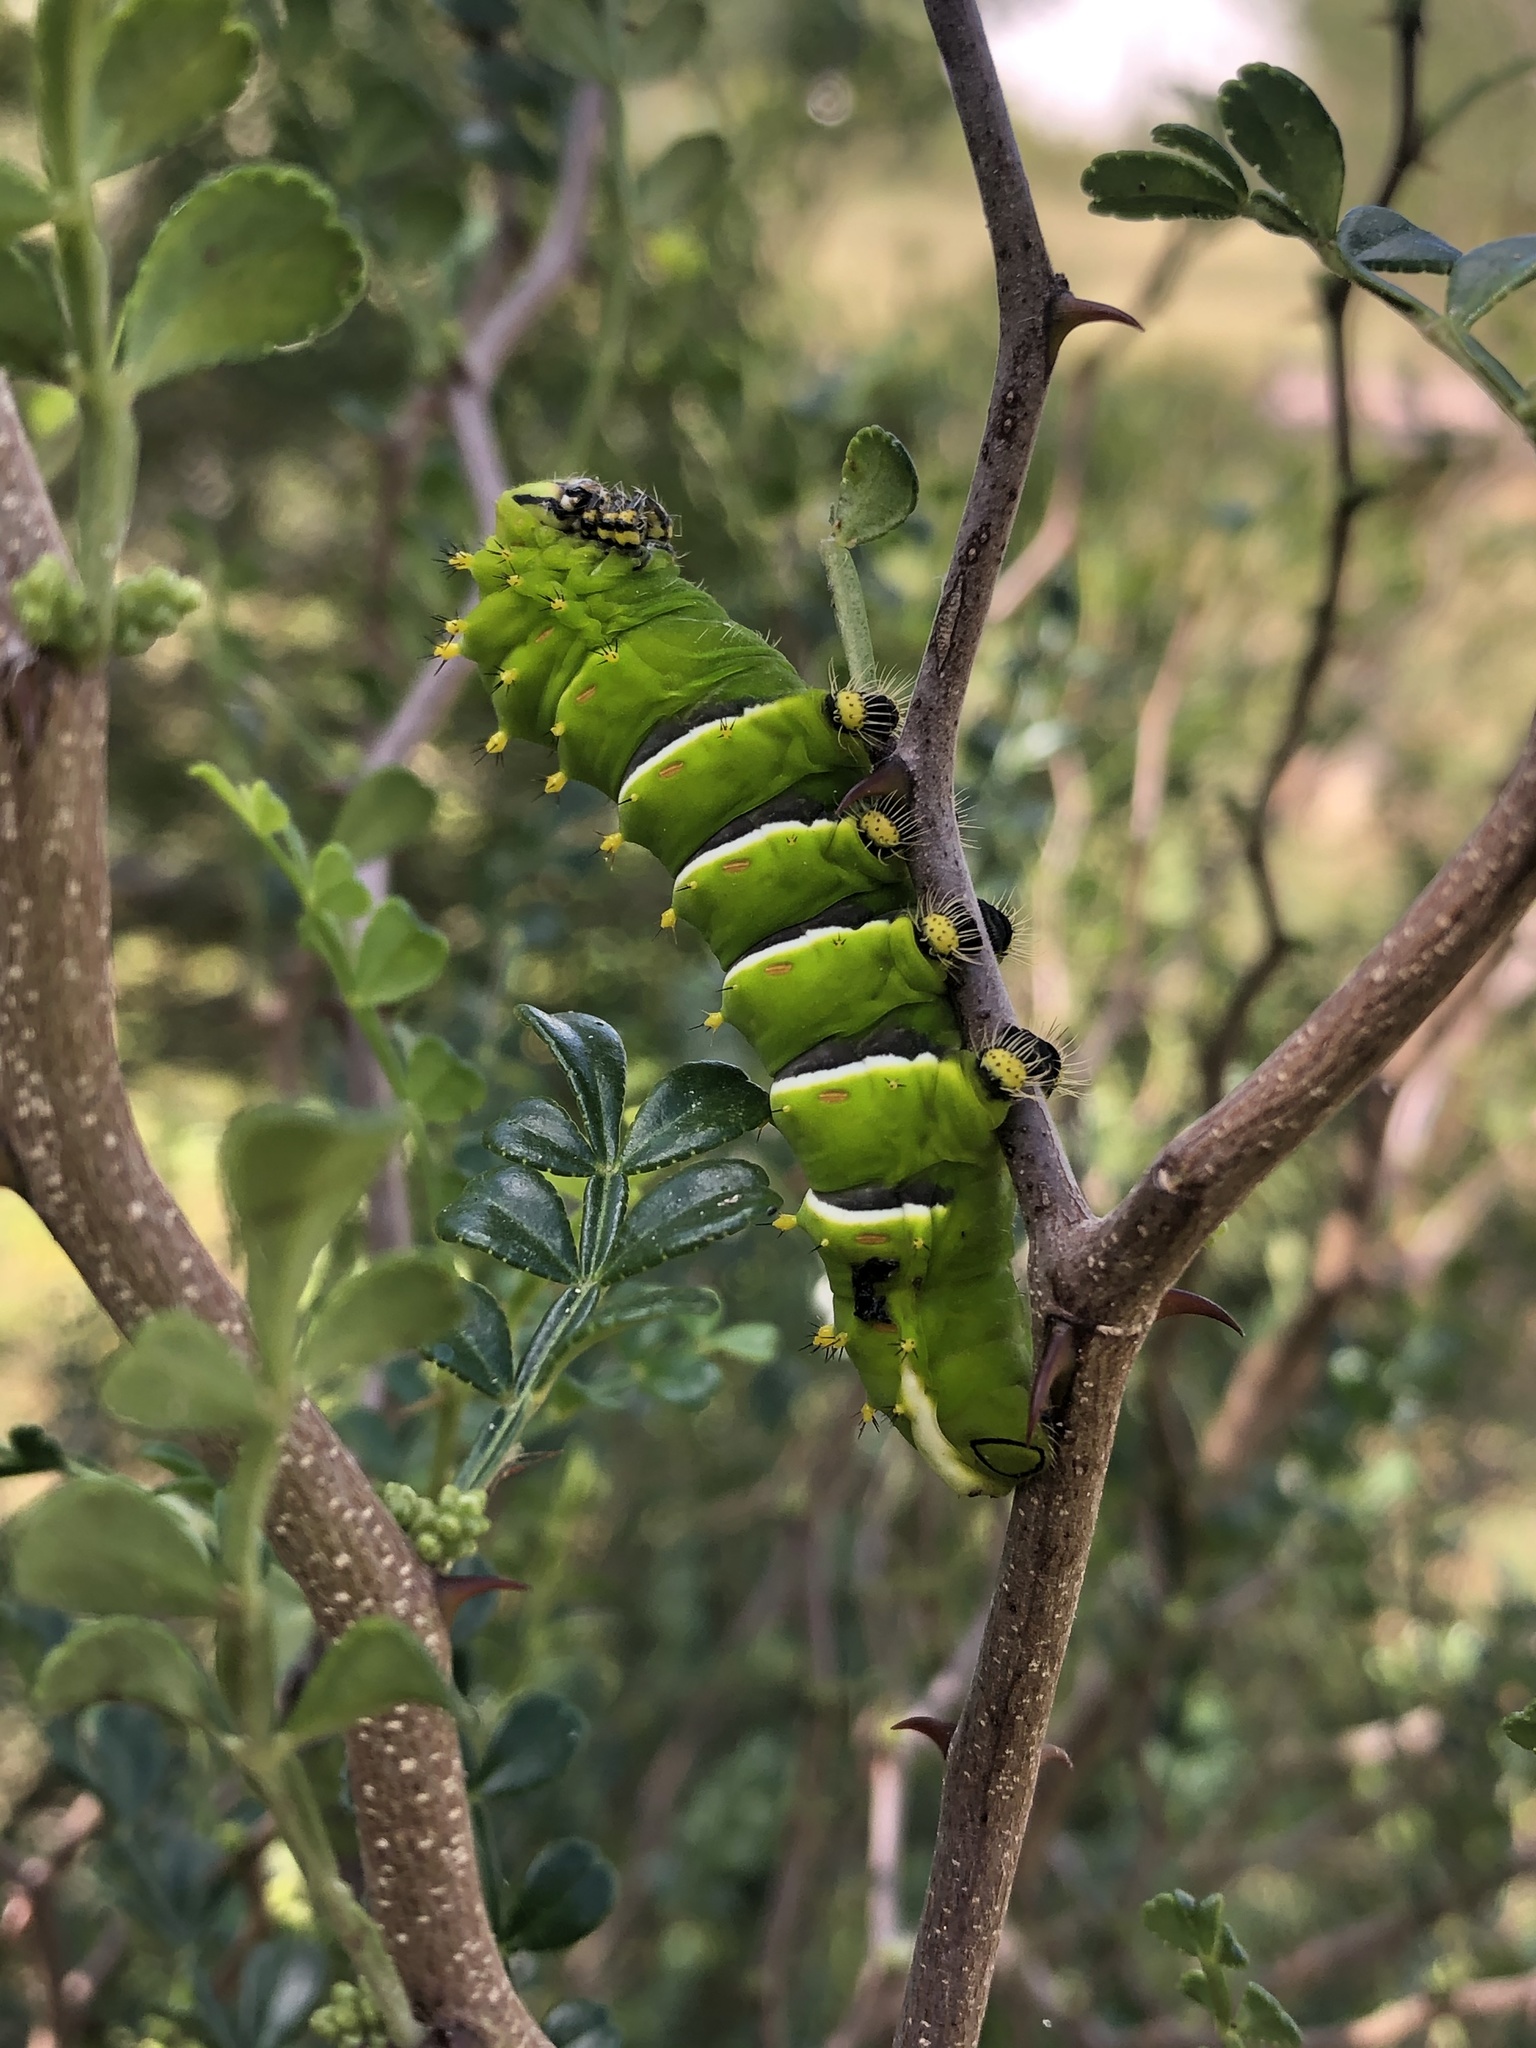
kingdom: Animalia
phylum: Arthropoda
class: Insecta
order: Lepidoptera
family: Saturniidae
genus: Rothschildia
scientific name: Rothschildia lebeau
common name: Lebeau's rothschildia
